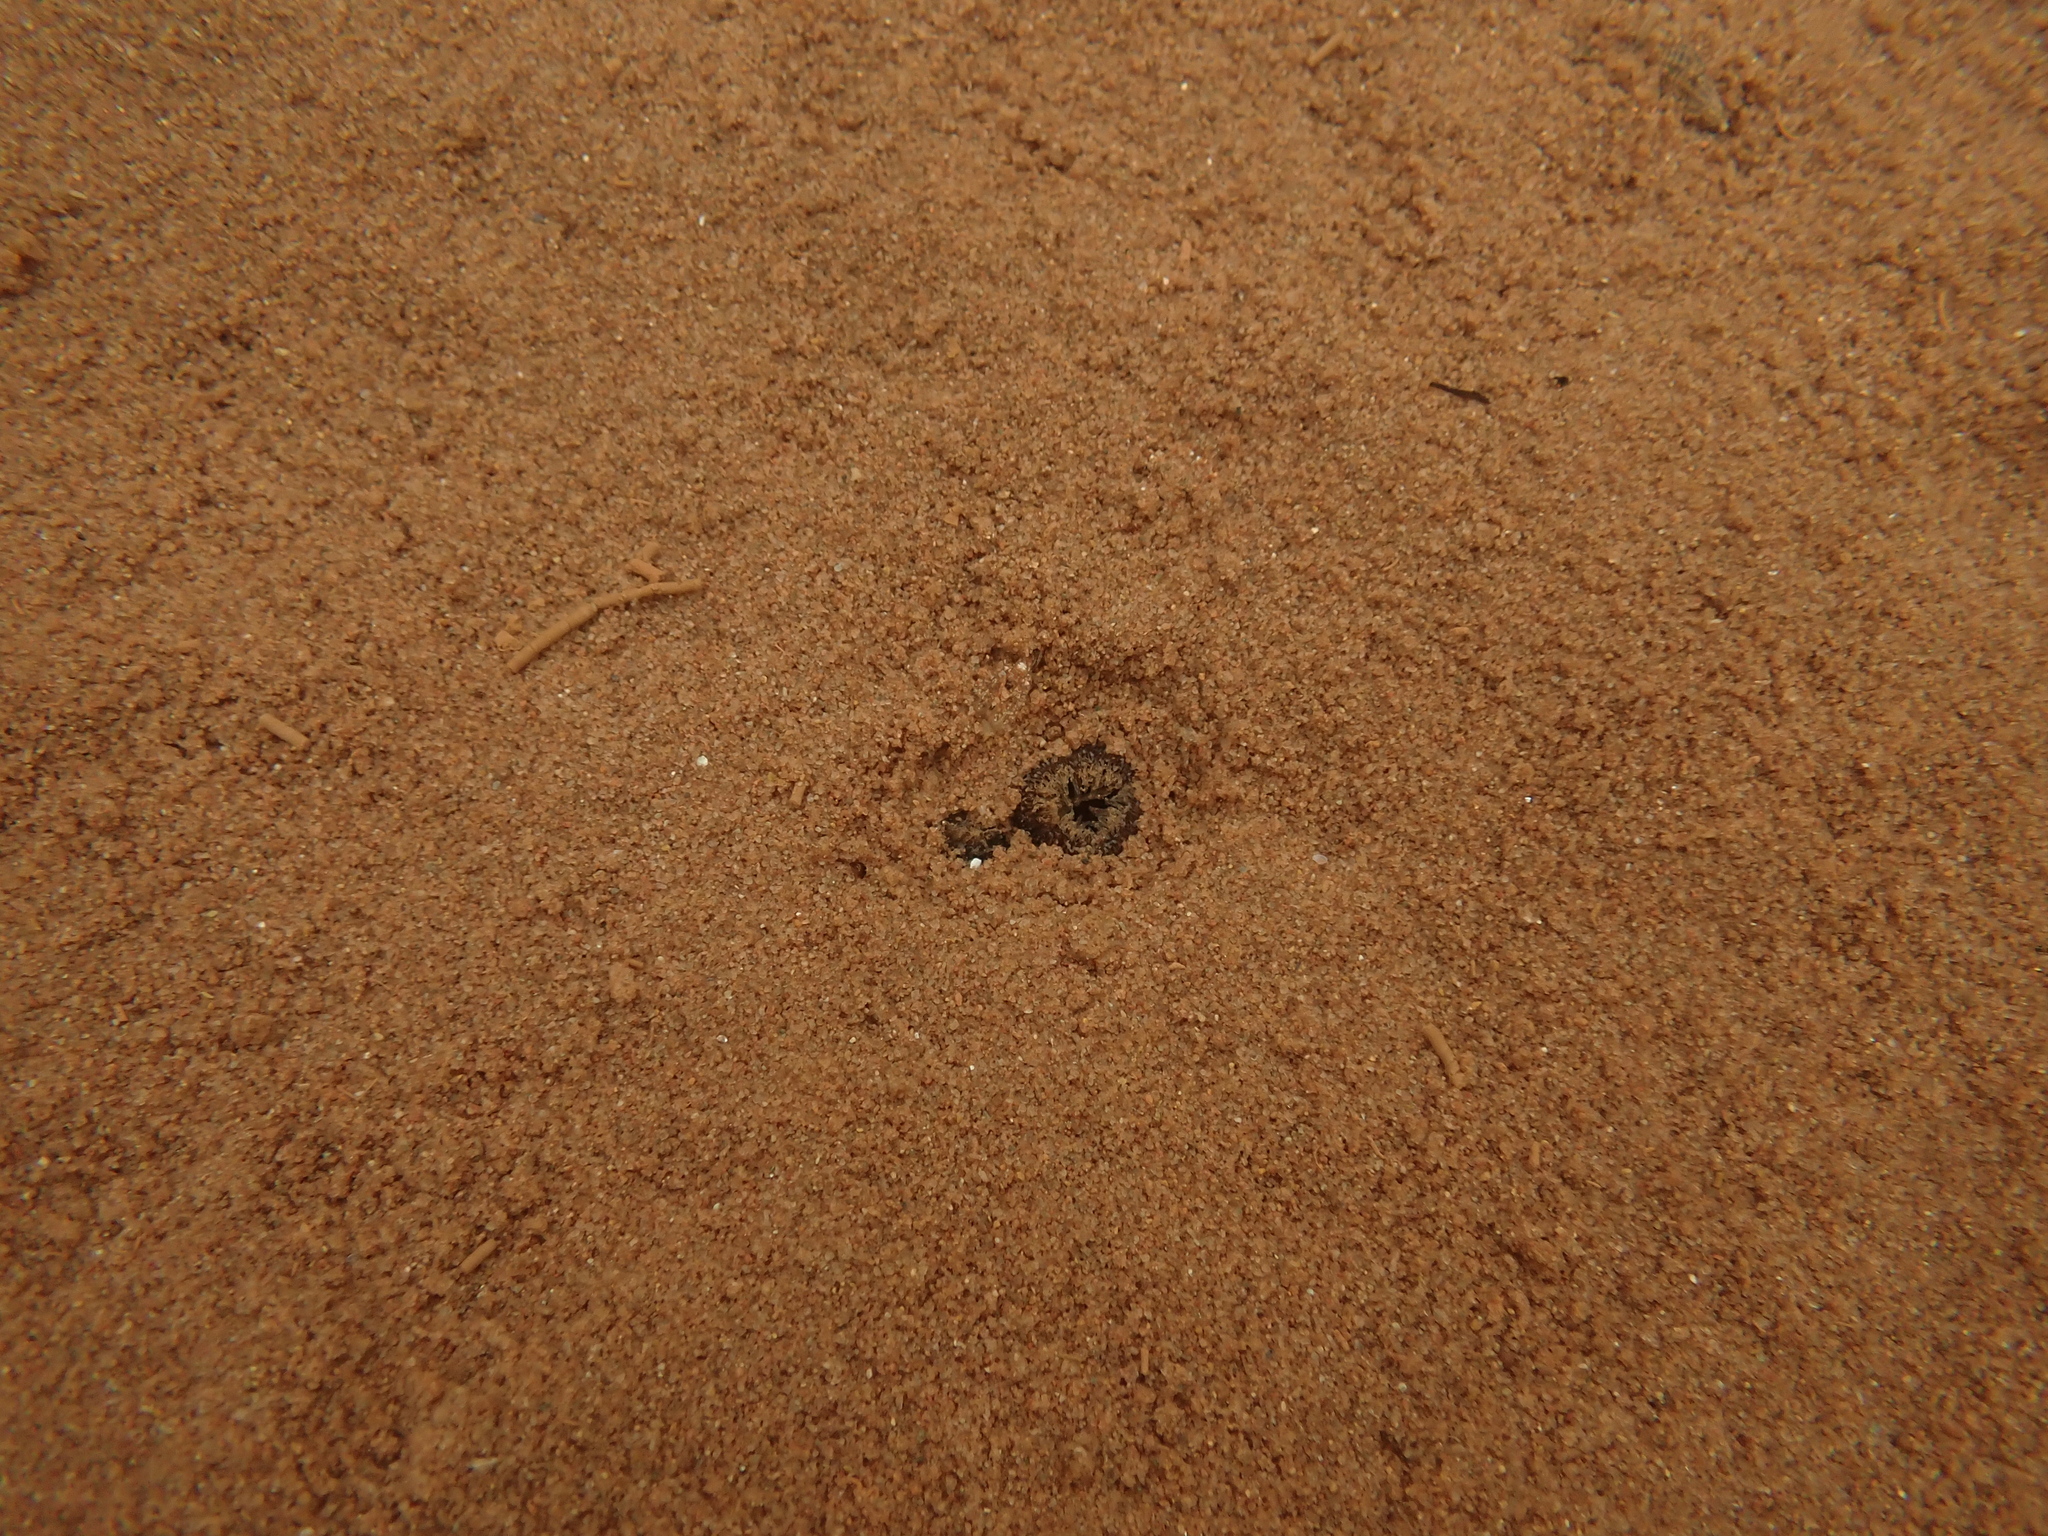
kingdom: Animalia
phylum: Mollusca
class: Bivalvia
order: Venerida
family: Mactridae
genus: Spisula
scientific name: Spisula solidissima
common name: Atlantic surf clam
